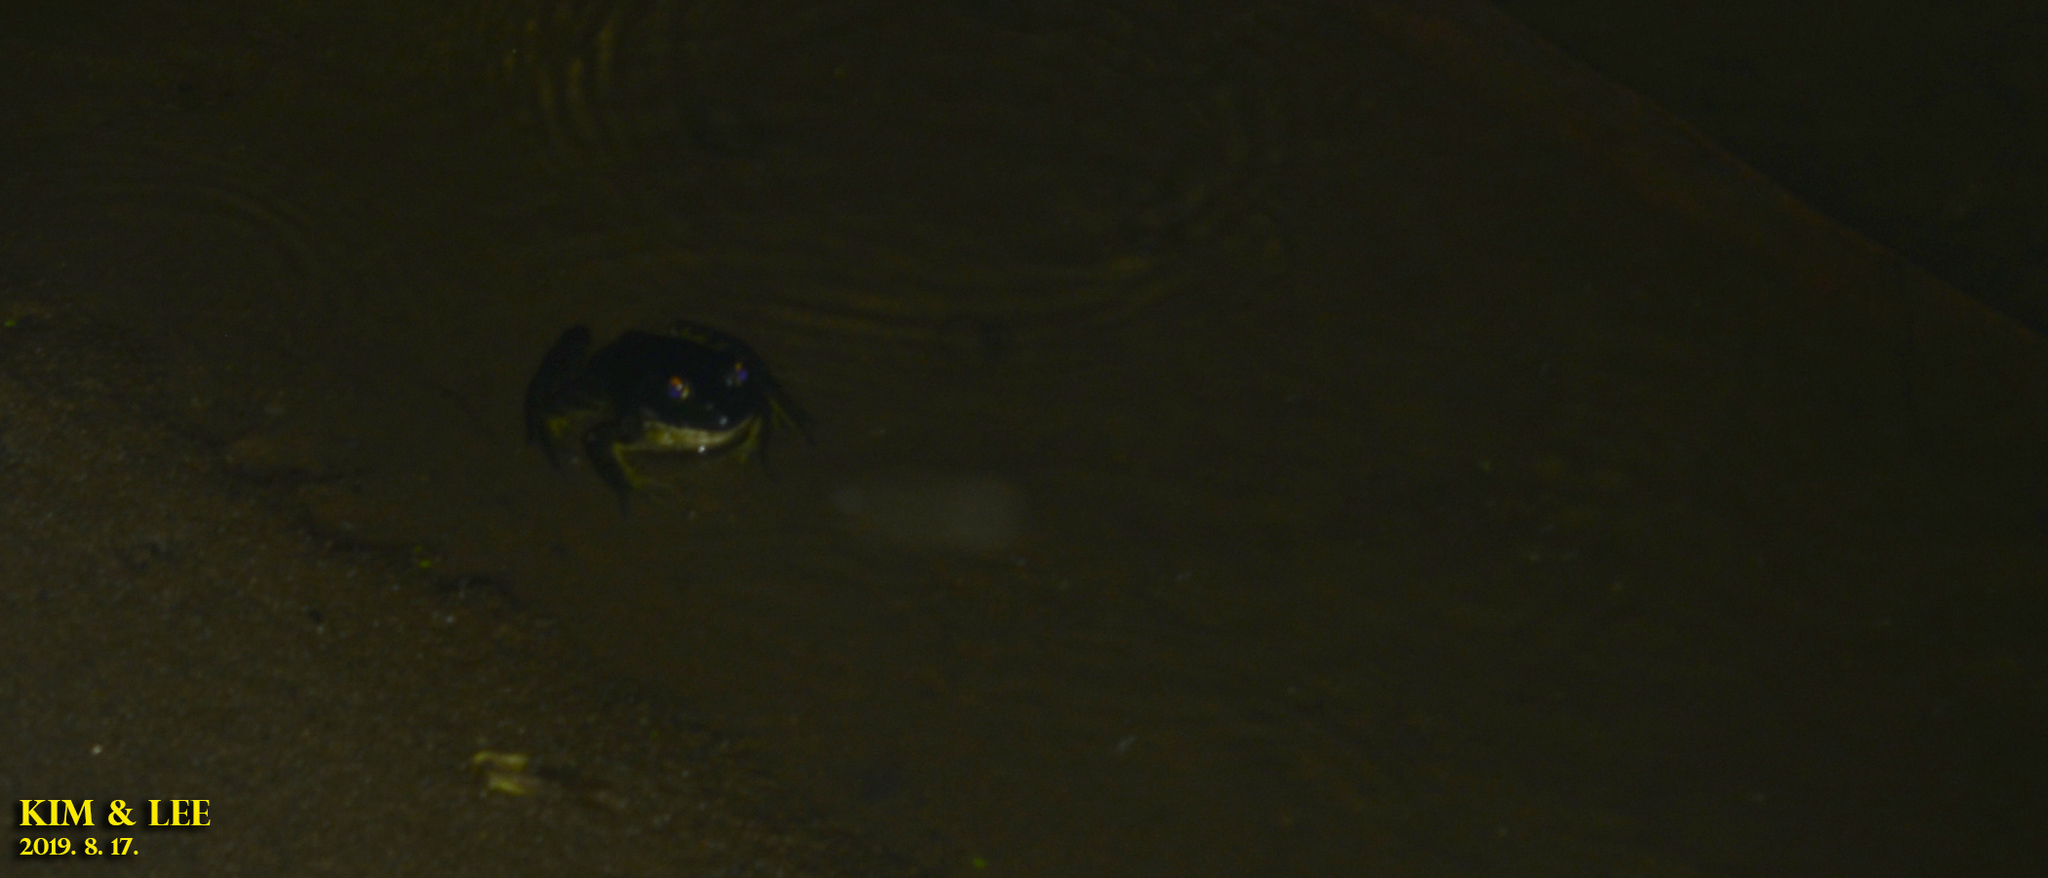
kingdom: Animalia
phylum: Chordata
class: Amphibia
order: Anura
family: Ranidae
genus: Lithobates
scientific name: Lithobates catesbeianus
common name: American bullfrog
